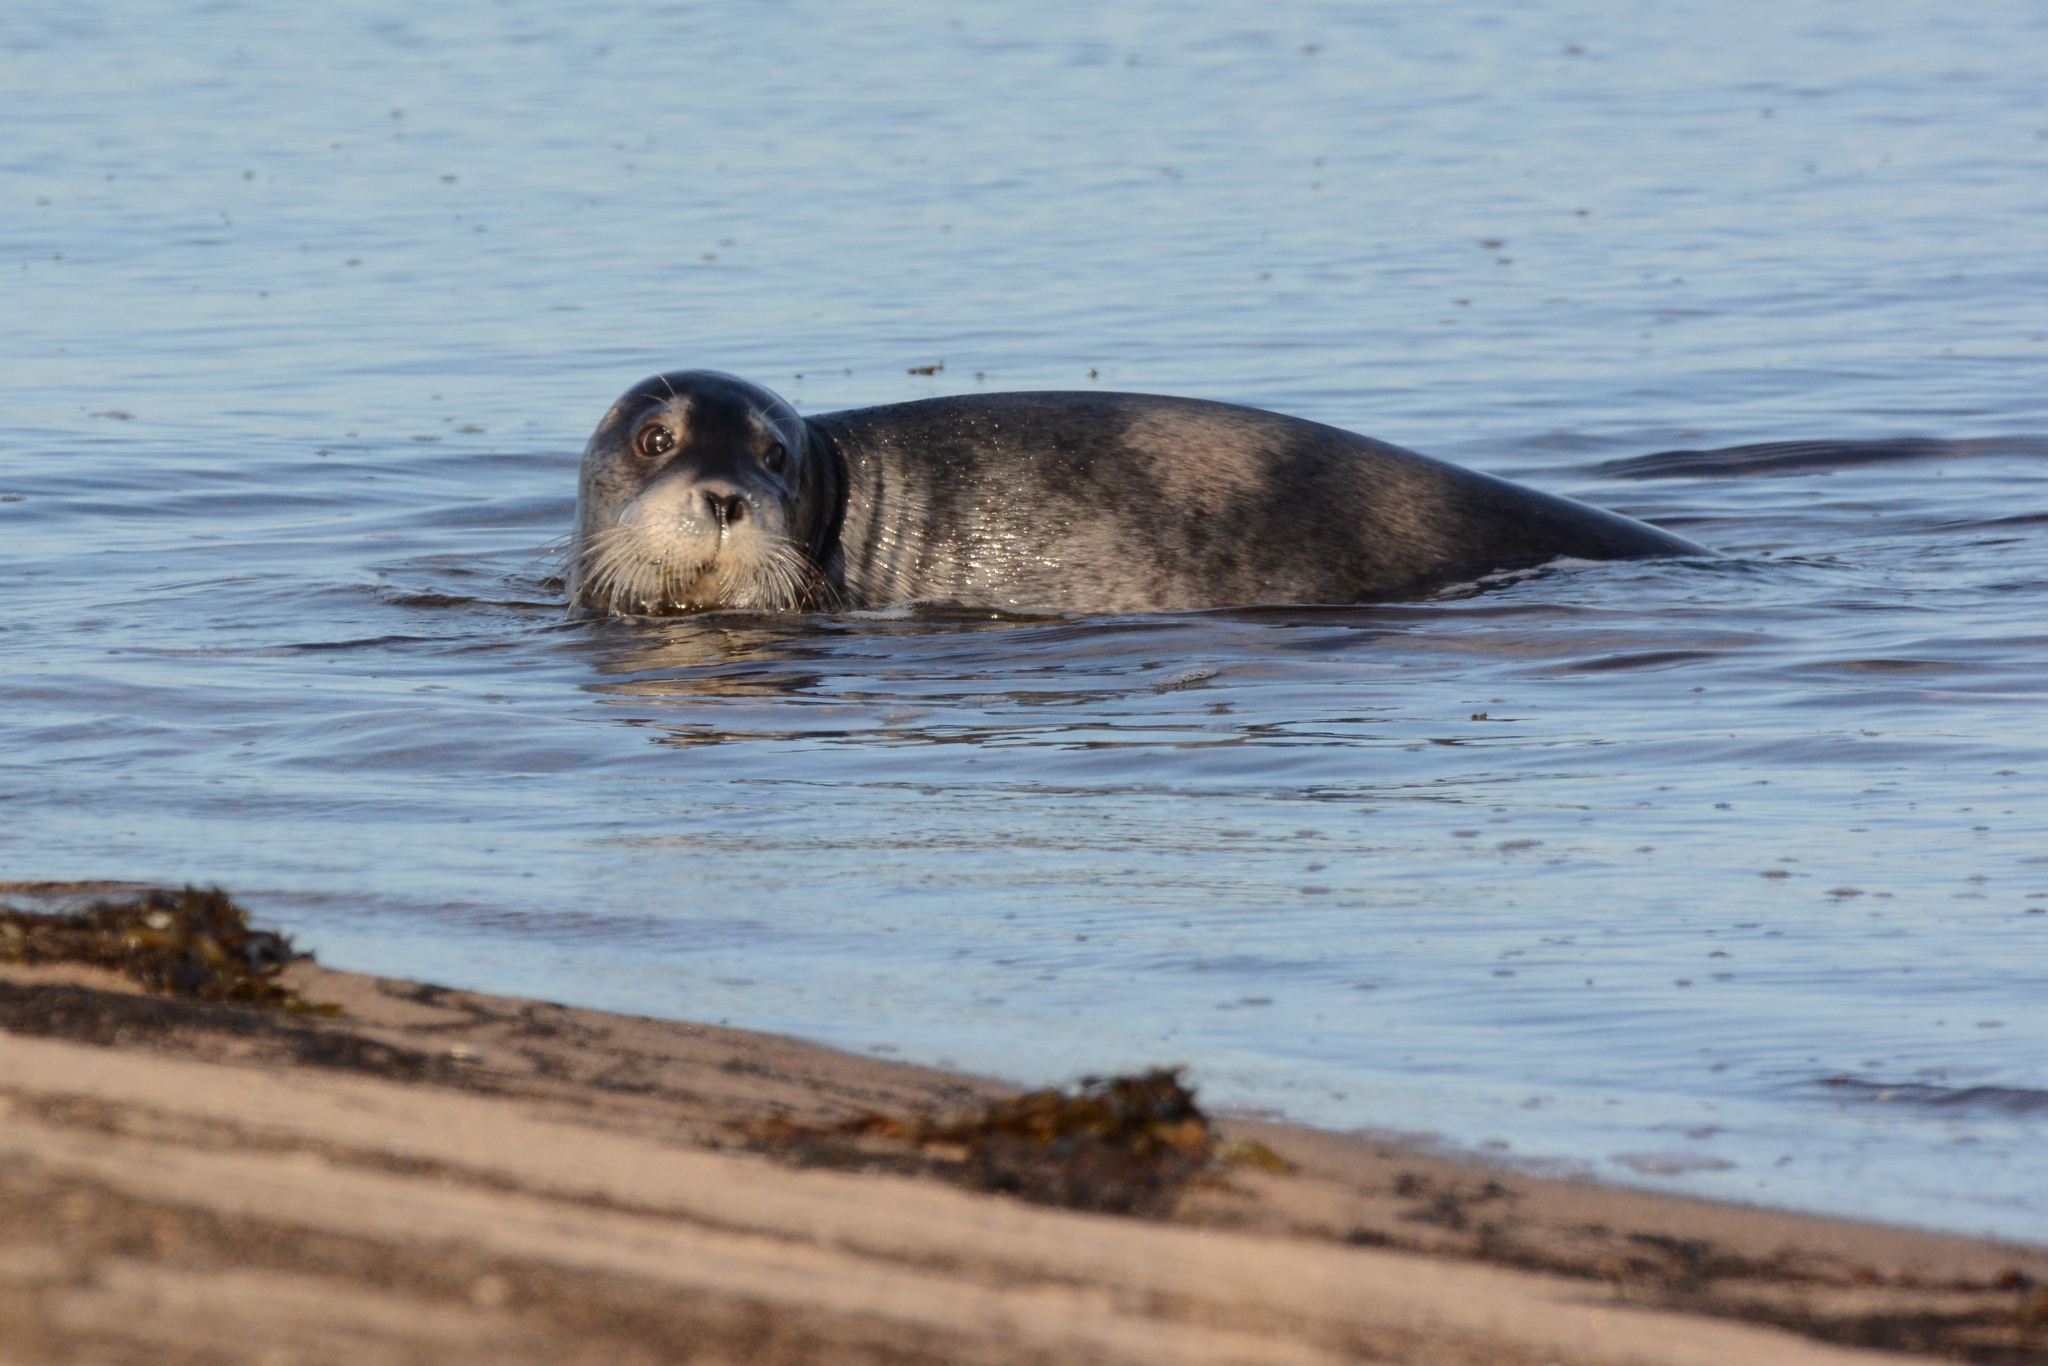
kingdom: Animalia
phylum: Chordata
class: Mammalia
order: Carnivora
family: Phocidae
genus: Erignathus
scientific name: Erignathus barbatus
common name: Bearded seal
